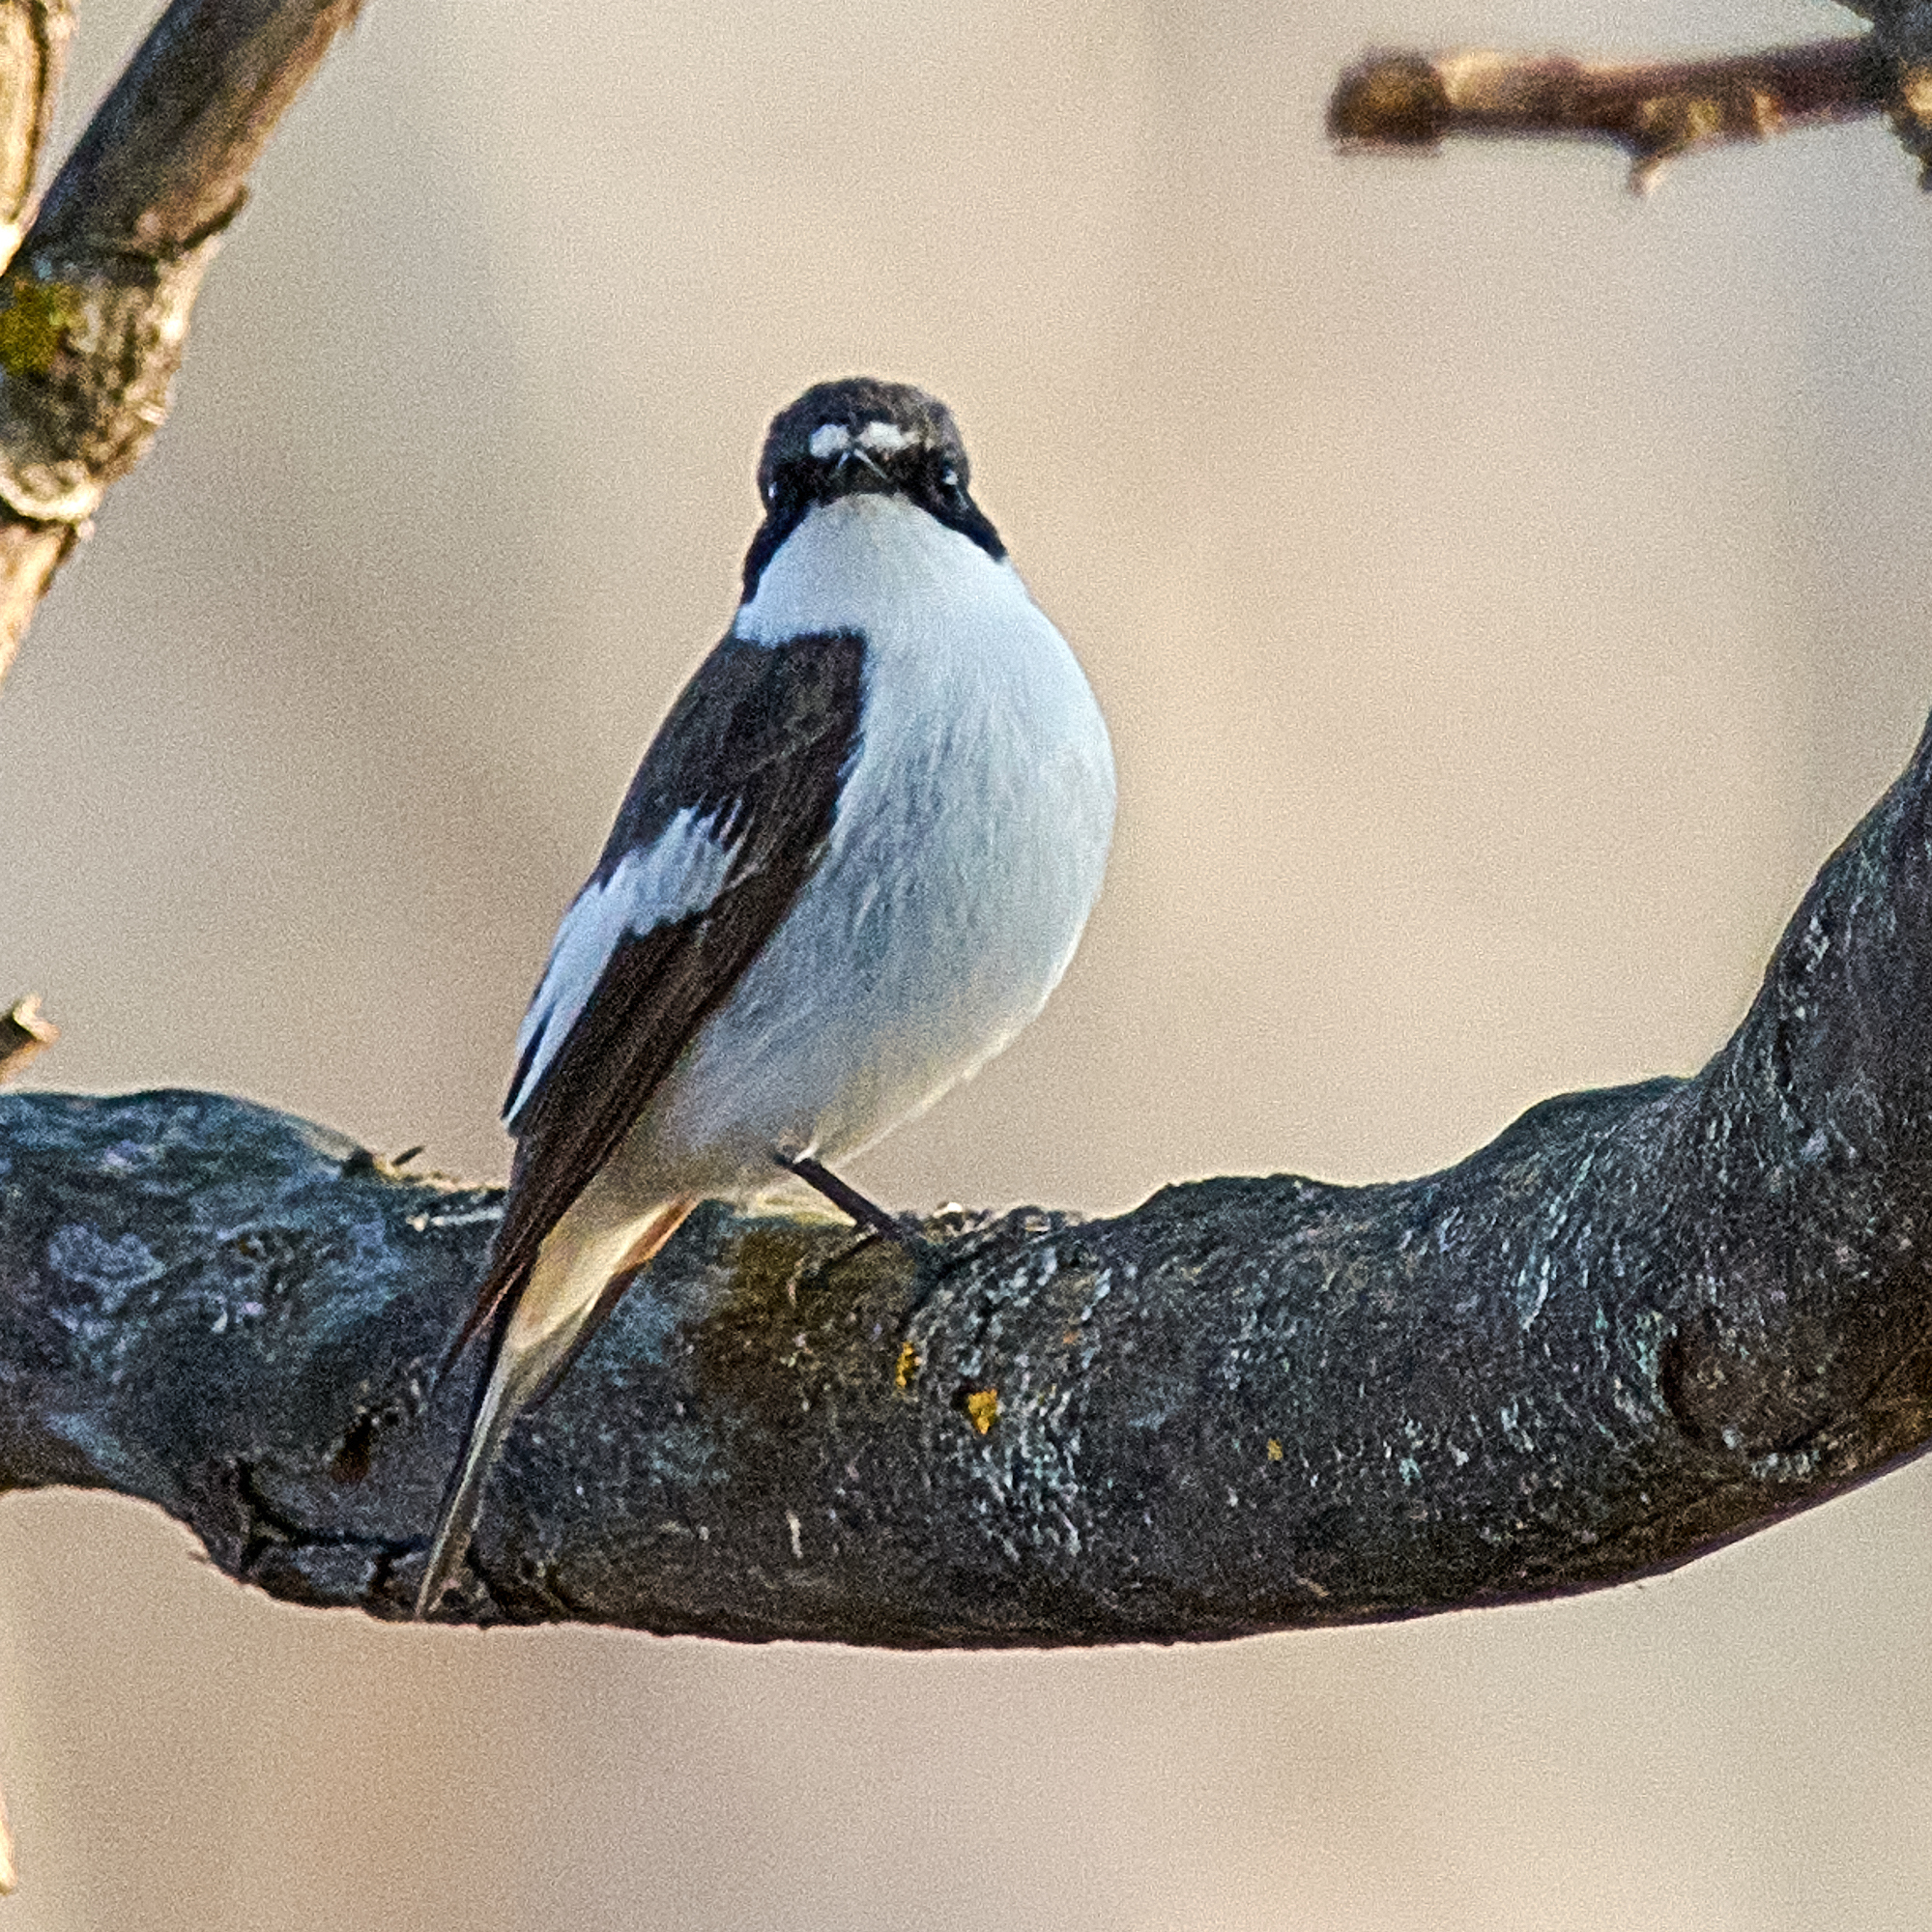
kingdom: Animalia
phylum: Chordata
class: Aves
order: Passeriformes
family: Muscicapidae
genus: Ficedula
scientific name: Ficedula hypoleuca
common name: European pied flycatcher
